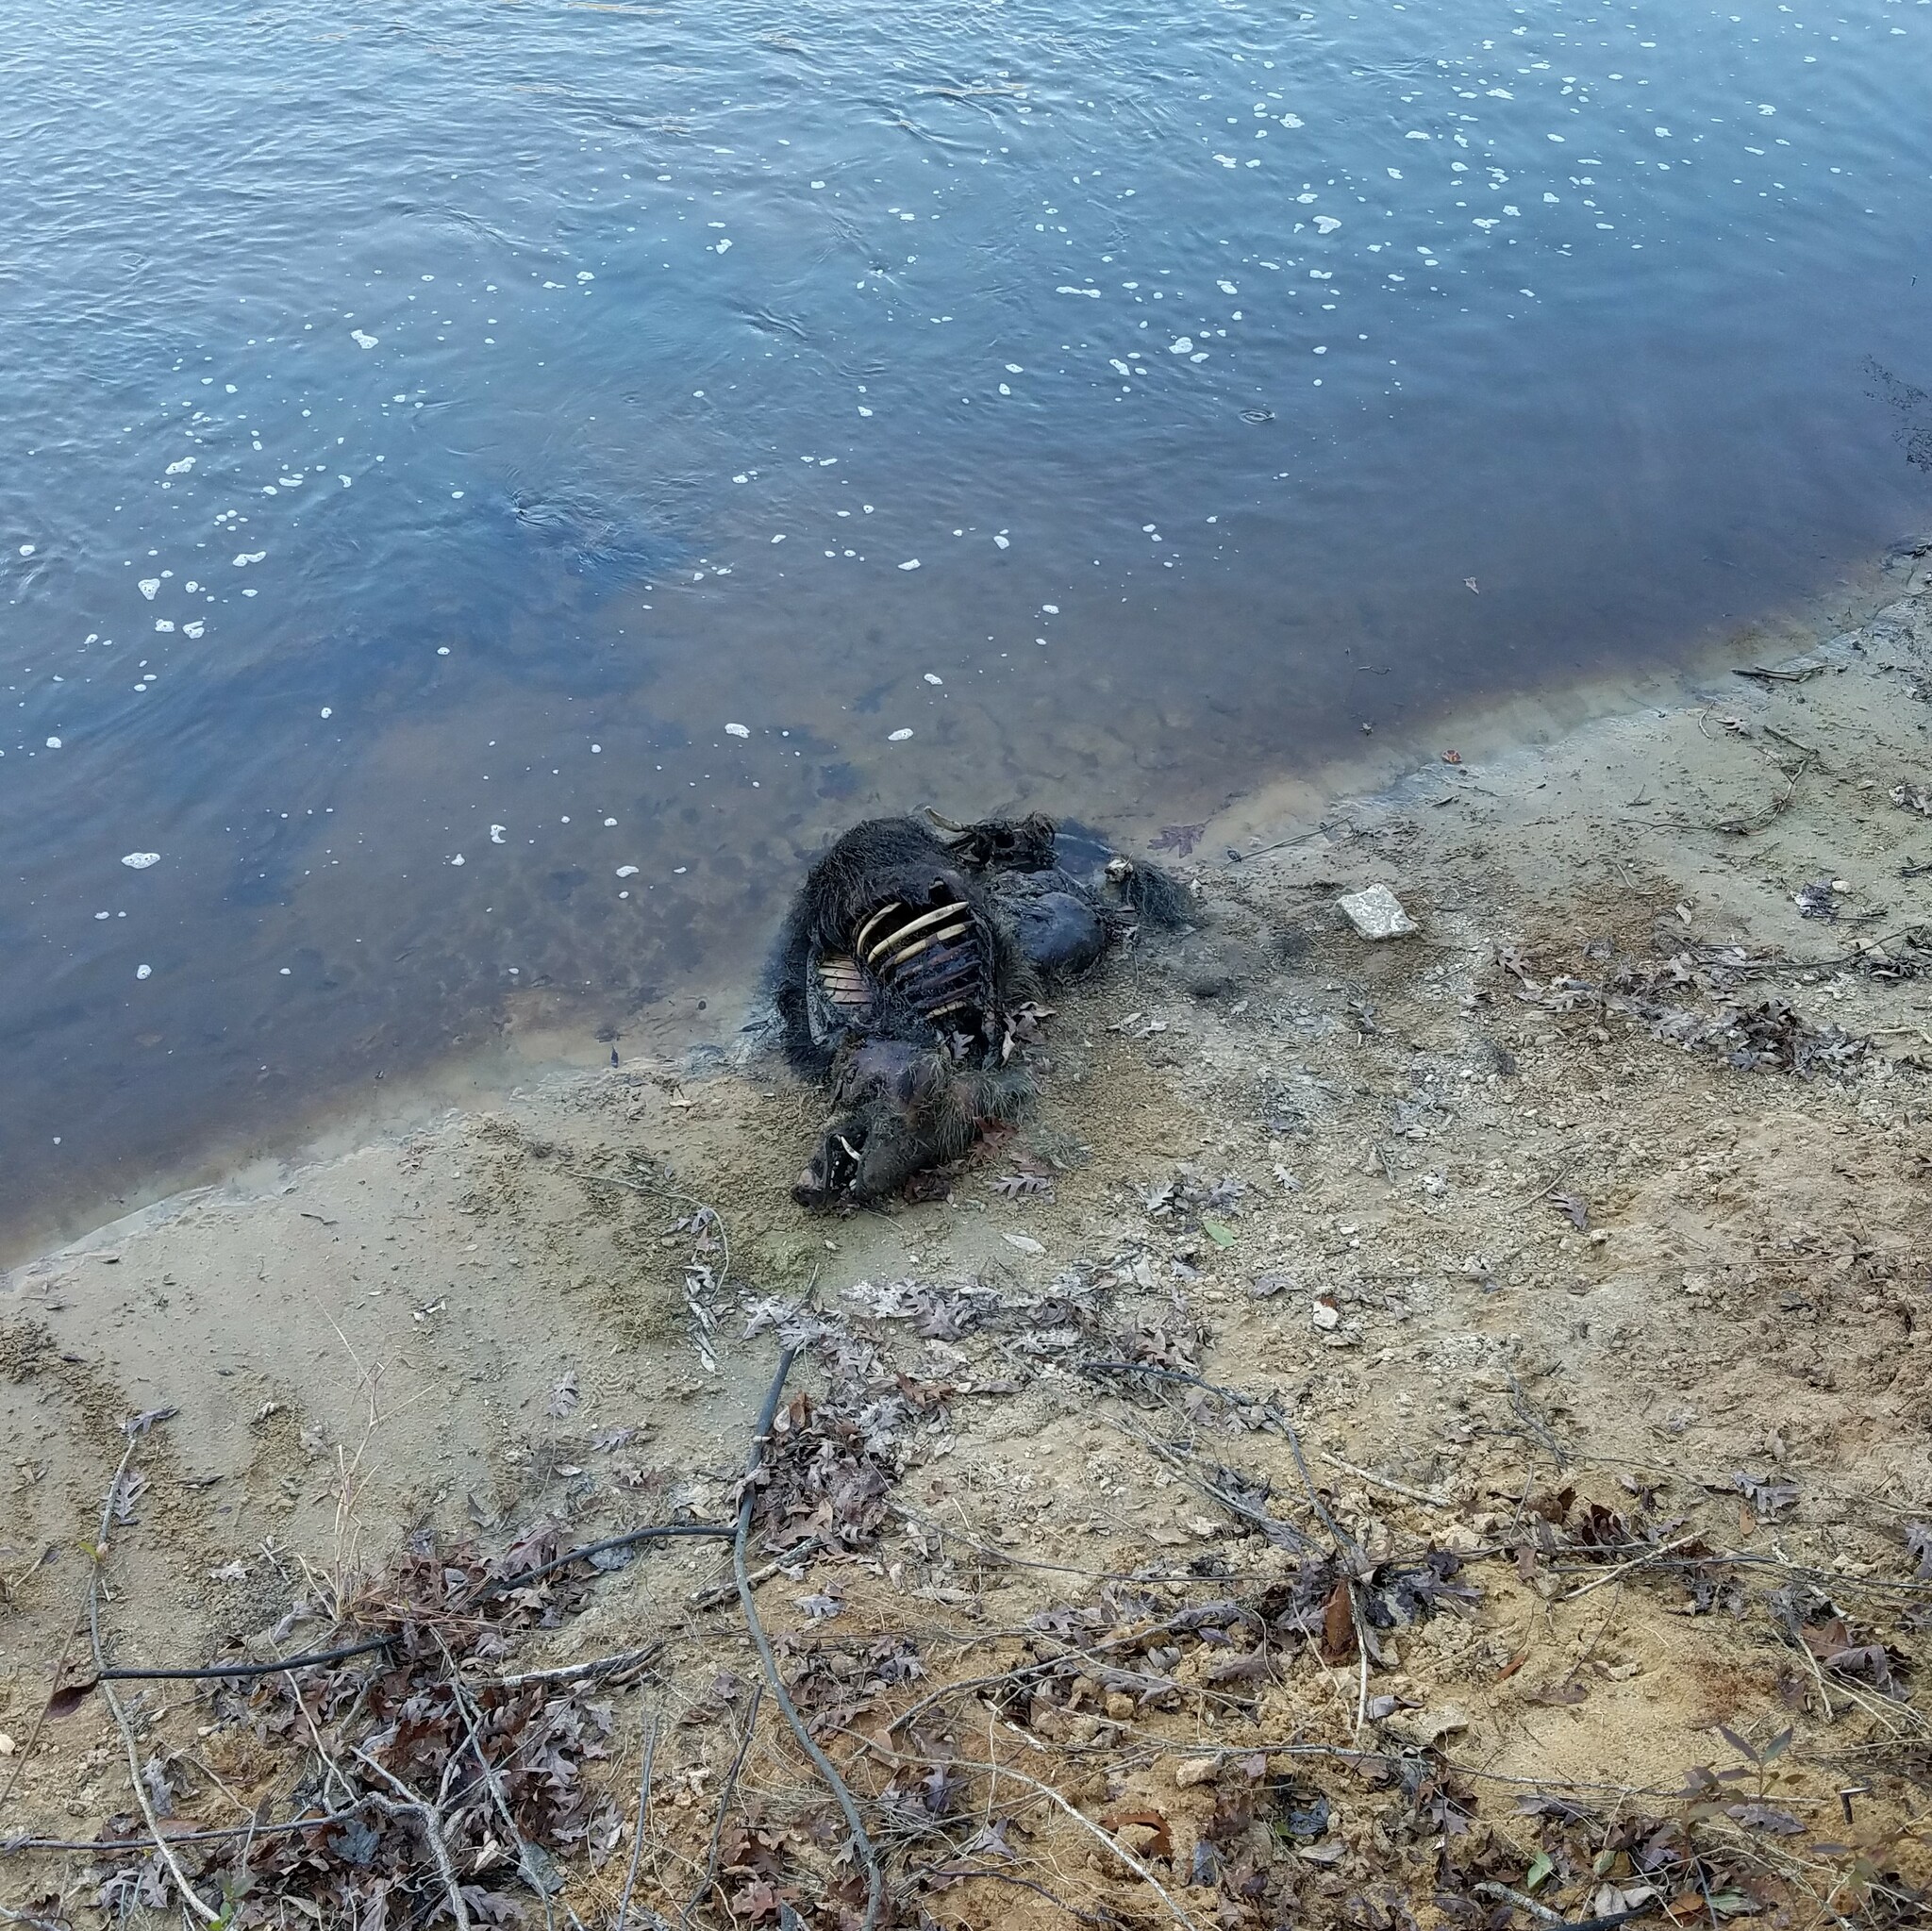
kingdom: Animalia
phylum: Chordata
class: Mammalia
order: Artiodactyla
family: Suidae
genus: Sus
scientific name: Sus scrofa
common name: Wild boar
